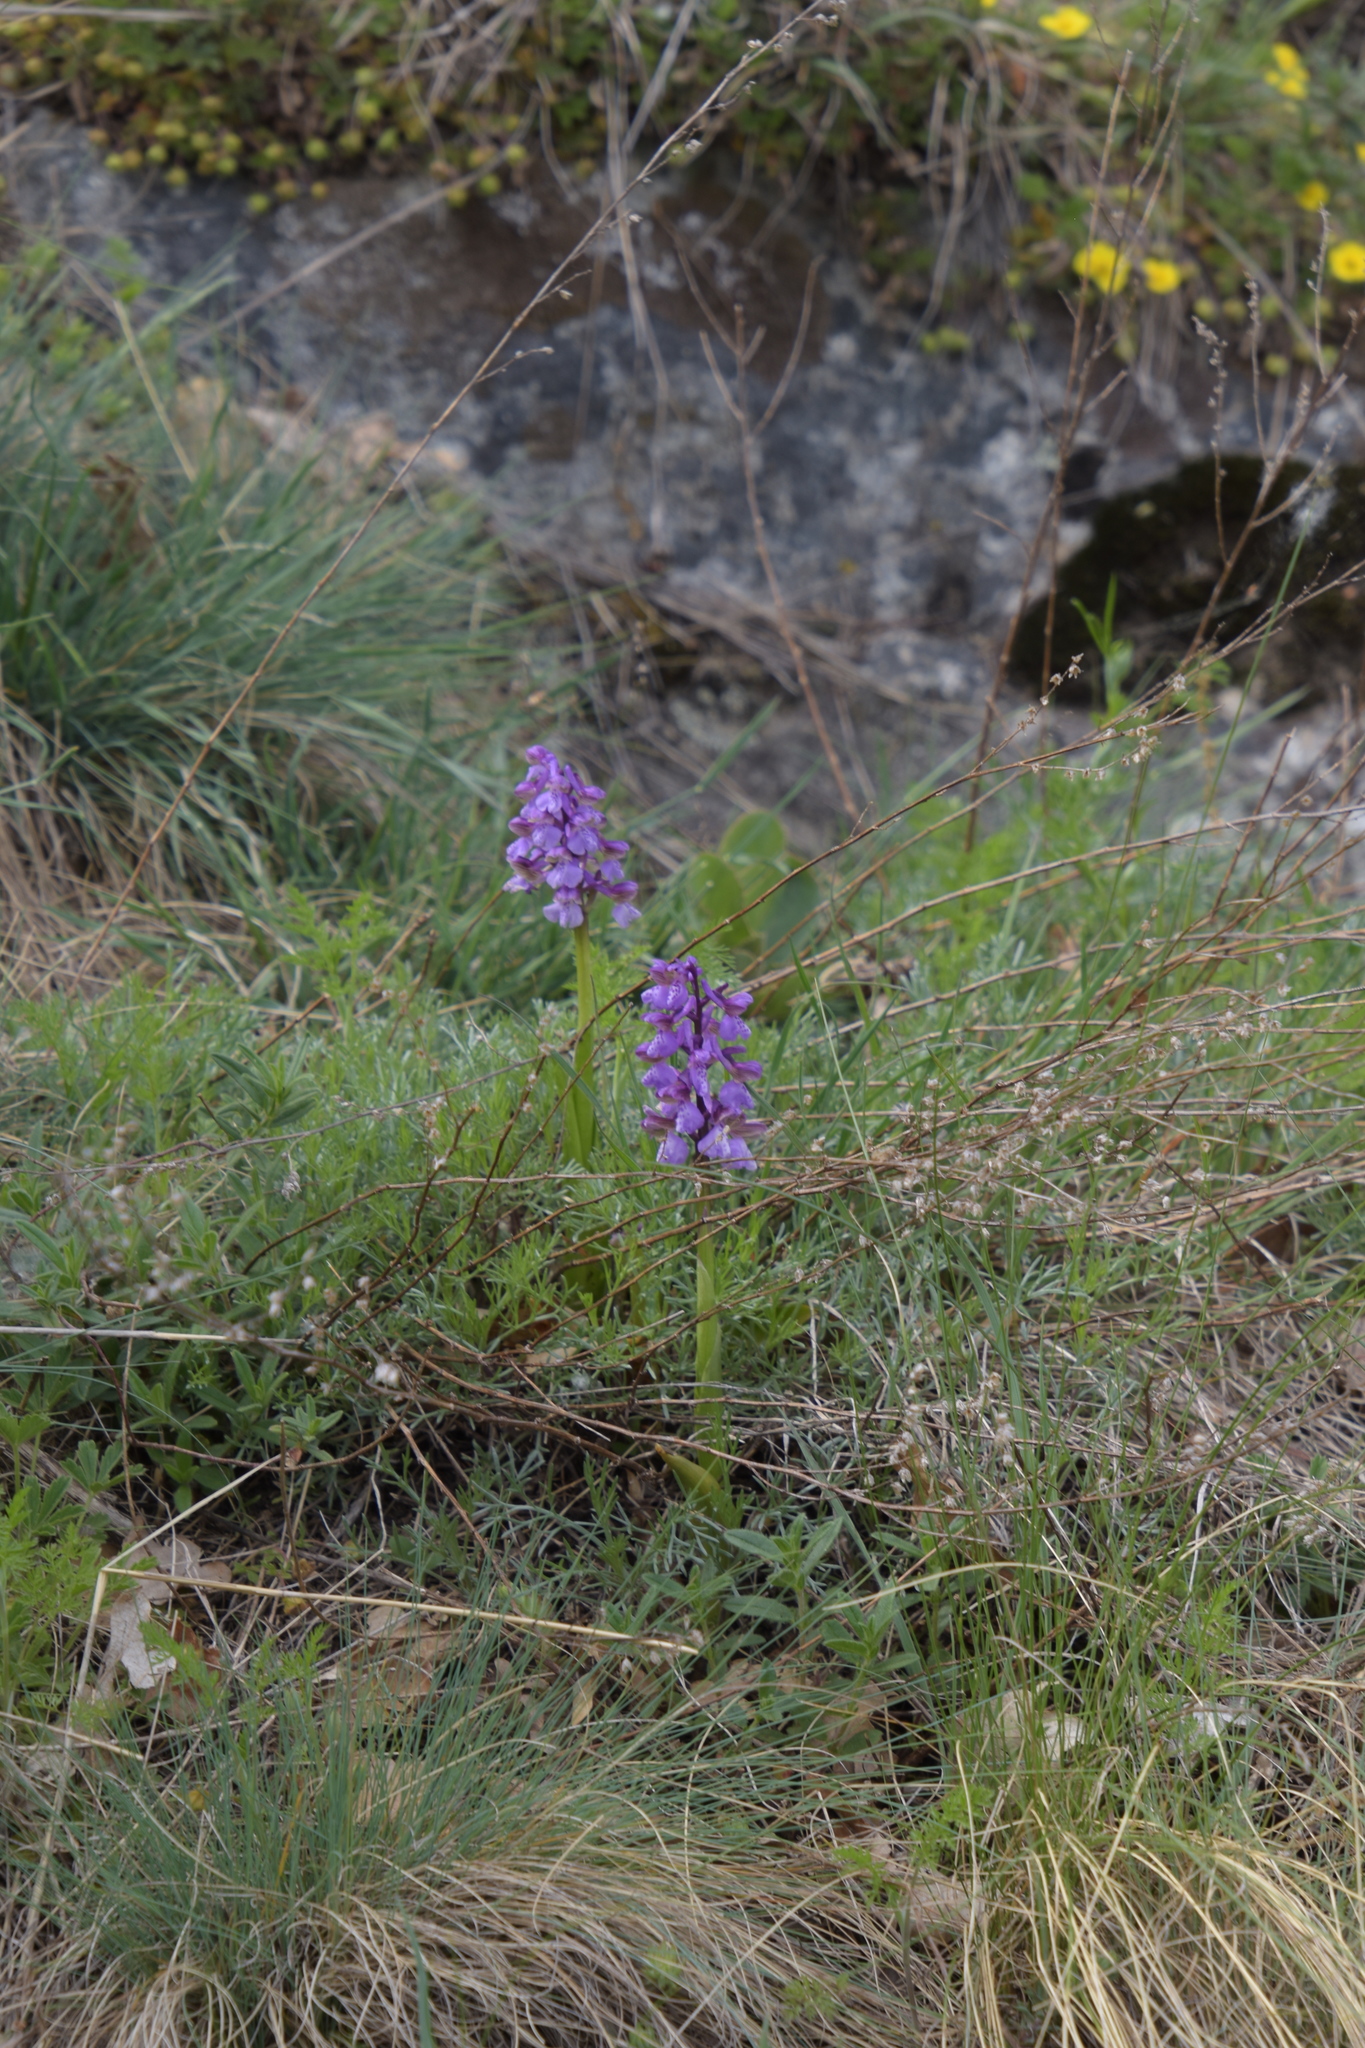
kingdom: Plantae
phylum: Tracheophyta
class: Liliopsida
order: Asparagales
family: Orchidaceae
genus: Anacamptis
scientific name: Anacamptis morio
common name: Green-winged orchid
